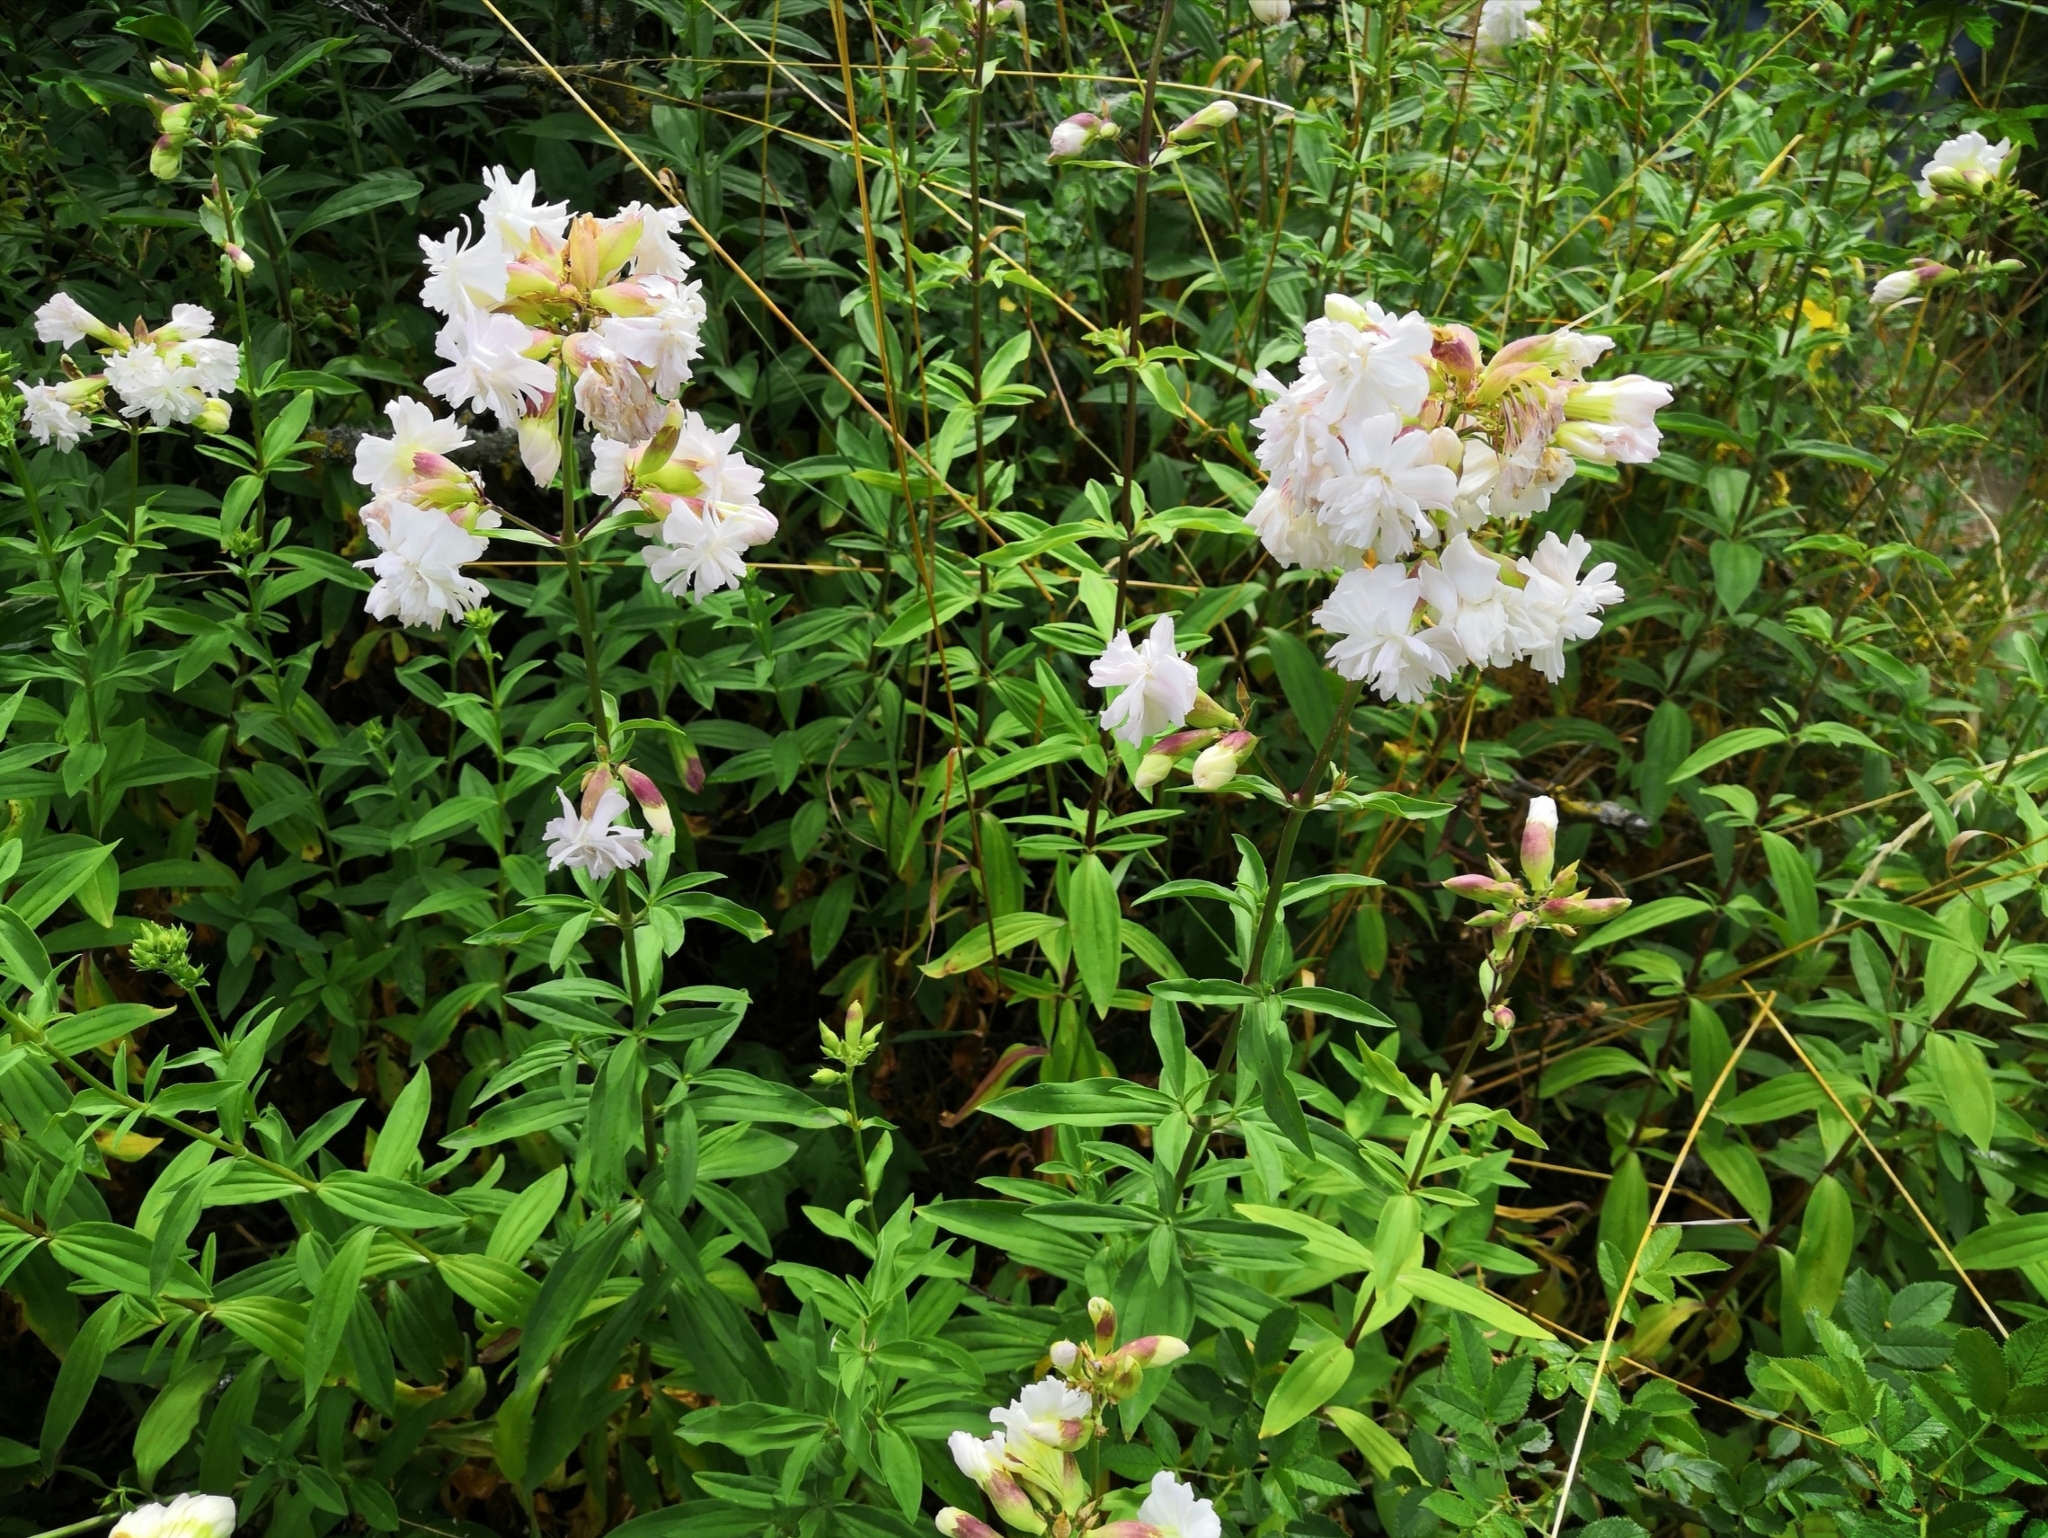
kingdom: Plantae
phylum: Tracheophyta
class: Magnoliopsida
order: Caryophyllales
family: Caryophyllaceae
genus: Saponaria
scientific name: Saponaria officinalis
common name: Soapwort
